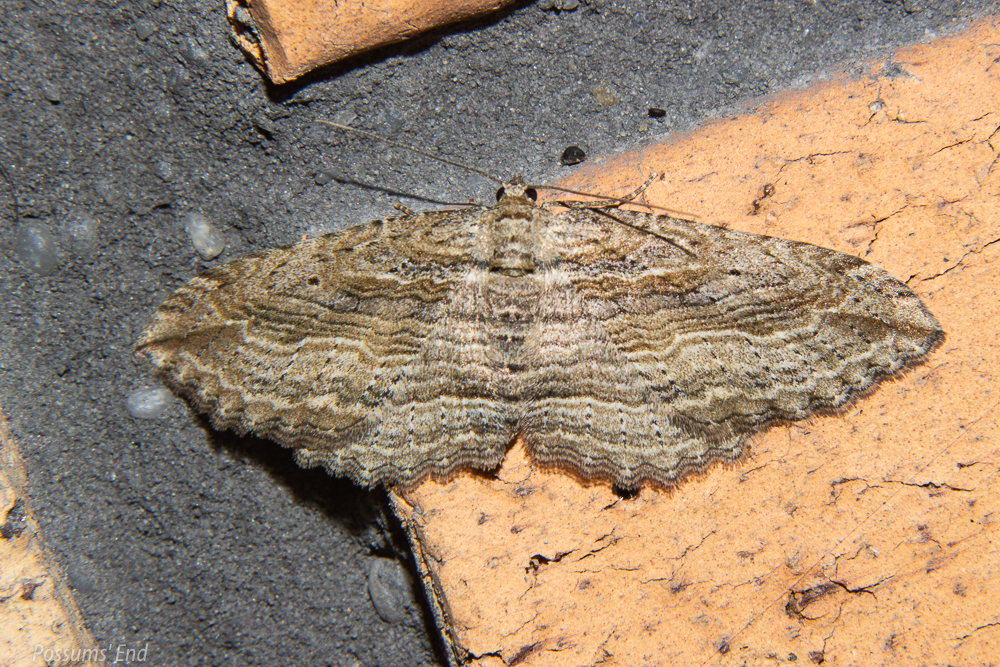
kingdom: Animalia
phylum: Arthropoda
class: Insecta
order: Lepidoptera
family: Geometridae
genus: Austrocidaria
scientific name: Austrocidaria gobiata
